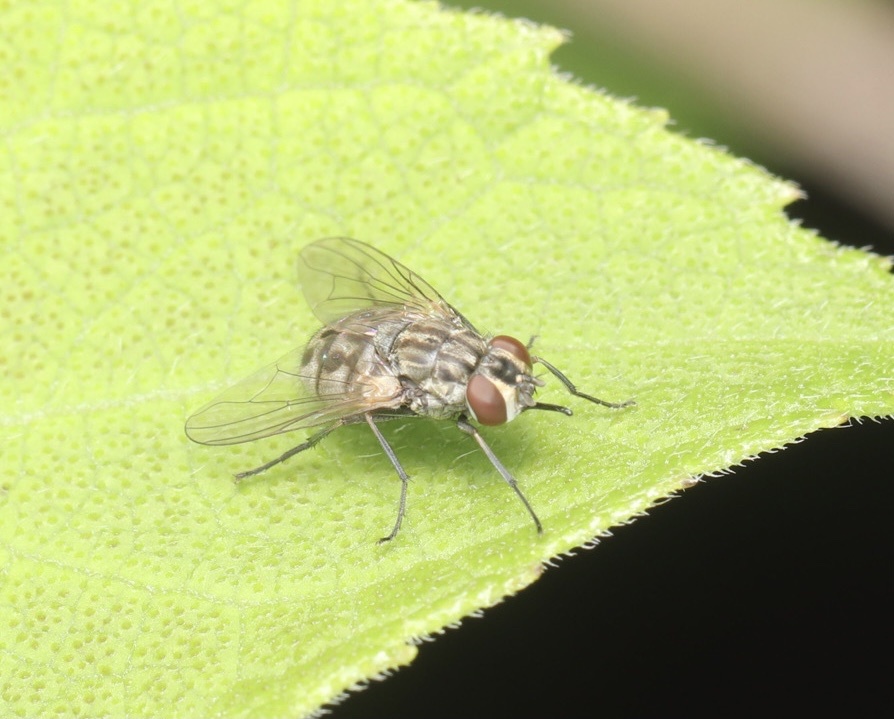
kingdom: Animalia
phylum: Arthropoda
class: Insecta
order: Diptera
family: Muscidae
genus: Stomoxys
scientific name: Stomoxys calcitrans
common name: Stable fly
